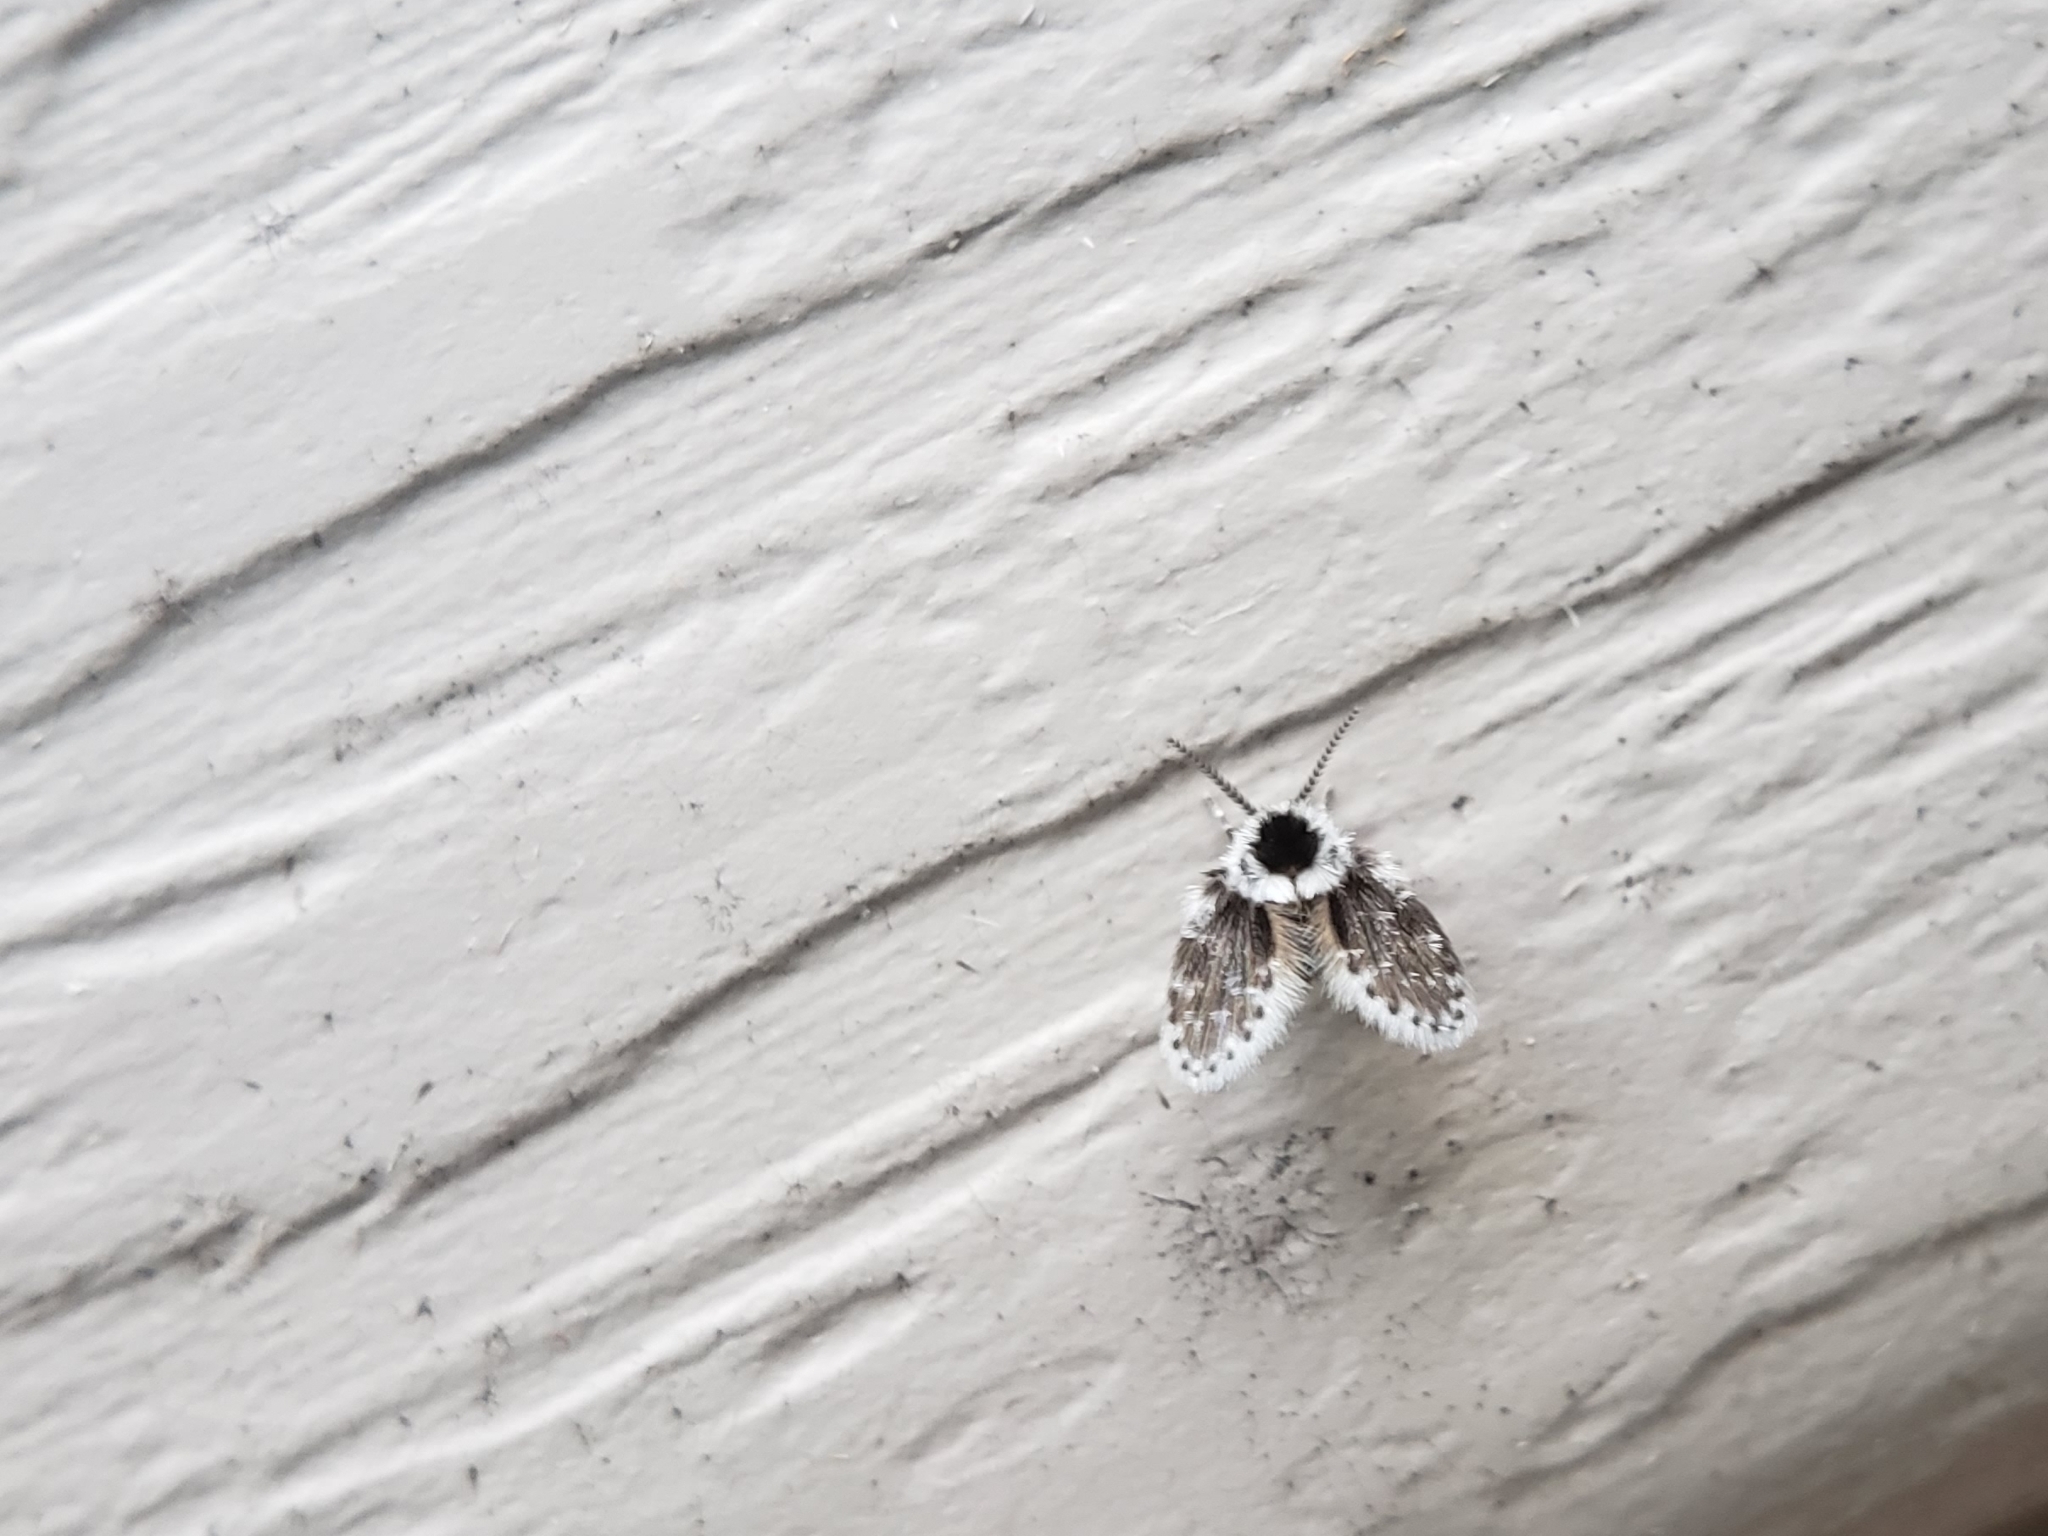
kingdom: Animalia
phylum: Arthropoda
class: Insecta
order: Diptera
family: Psychodidae
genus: Lepiseodina
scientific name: Lepiseodina
